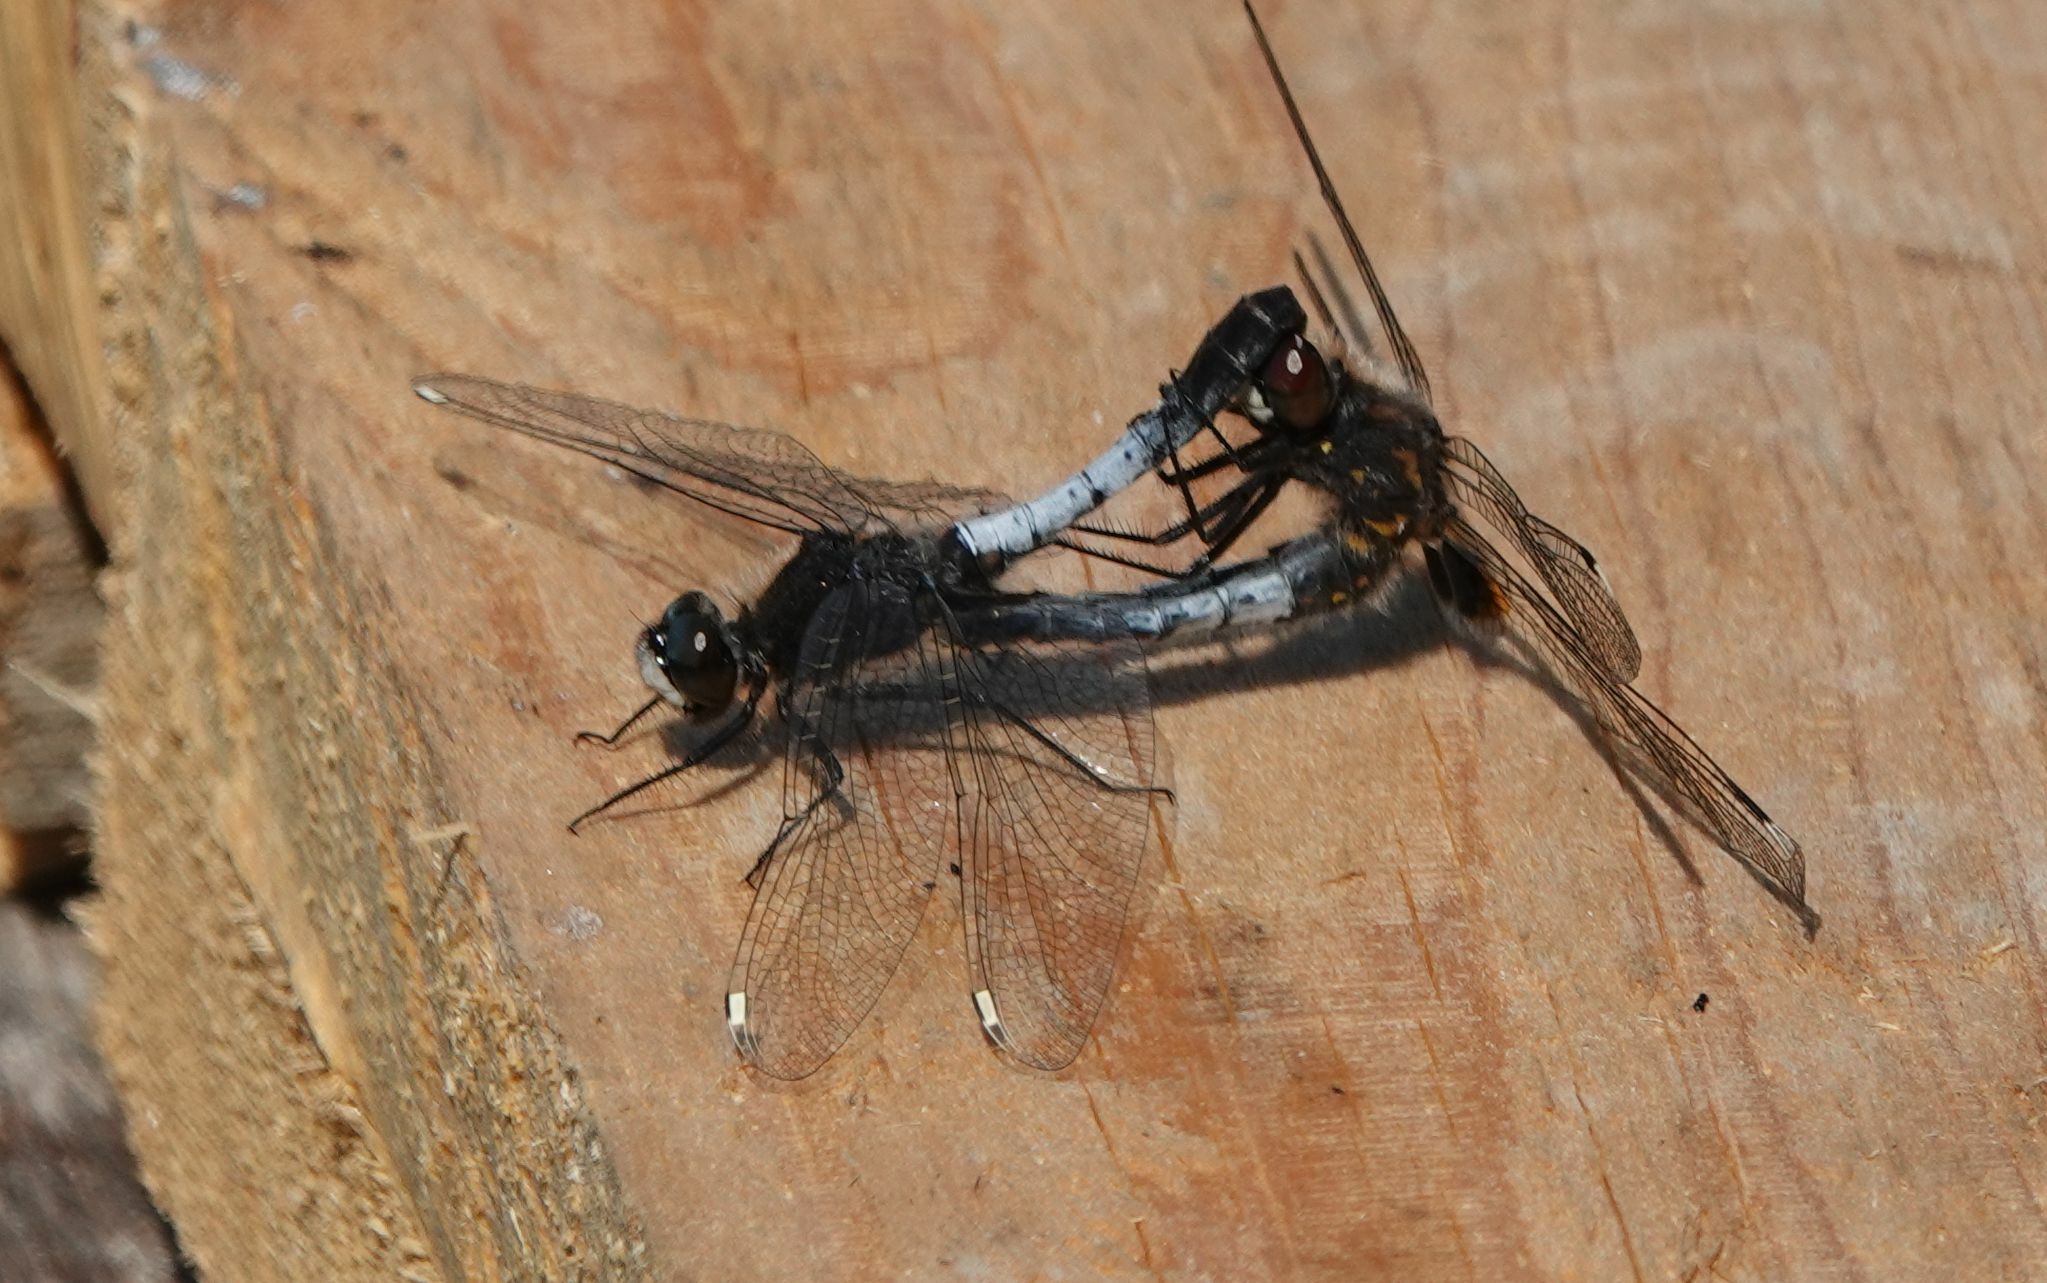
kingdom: Animalia
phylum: Arthropoda
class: Insecta
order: Odonata
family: Libellulidae
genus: Leucorrhinia
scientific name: Leucorrhinia caudalis
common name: Lilypad whiteface
